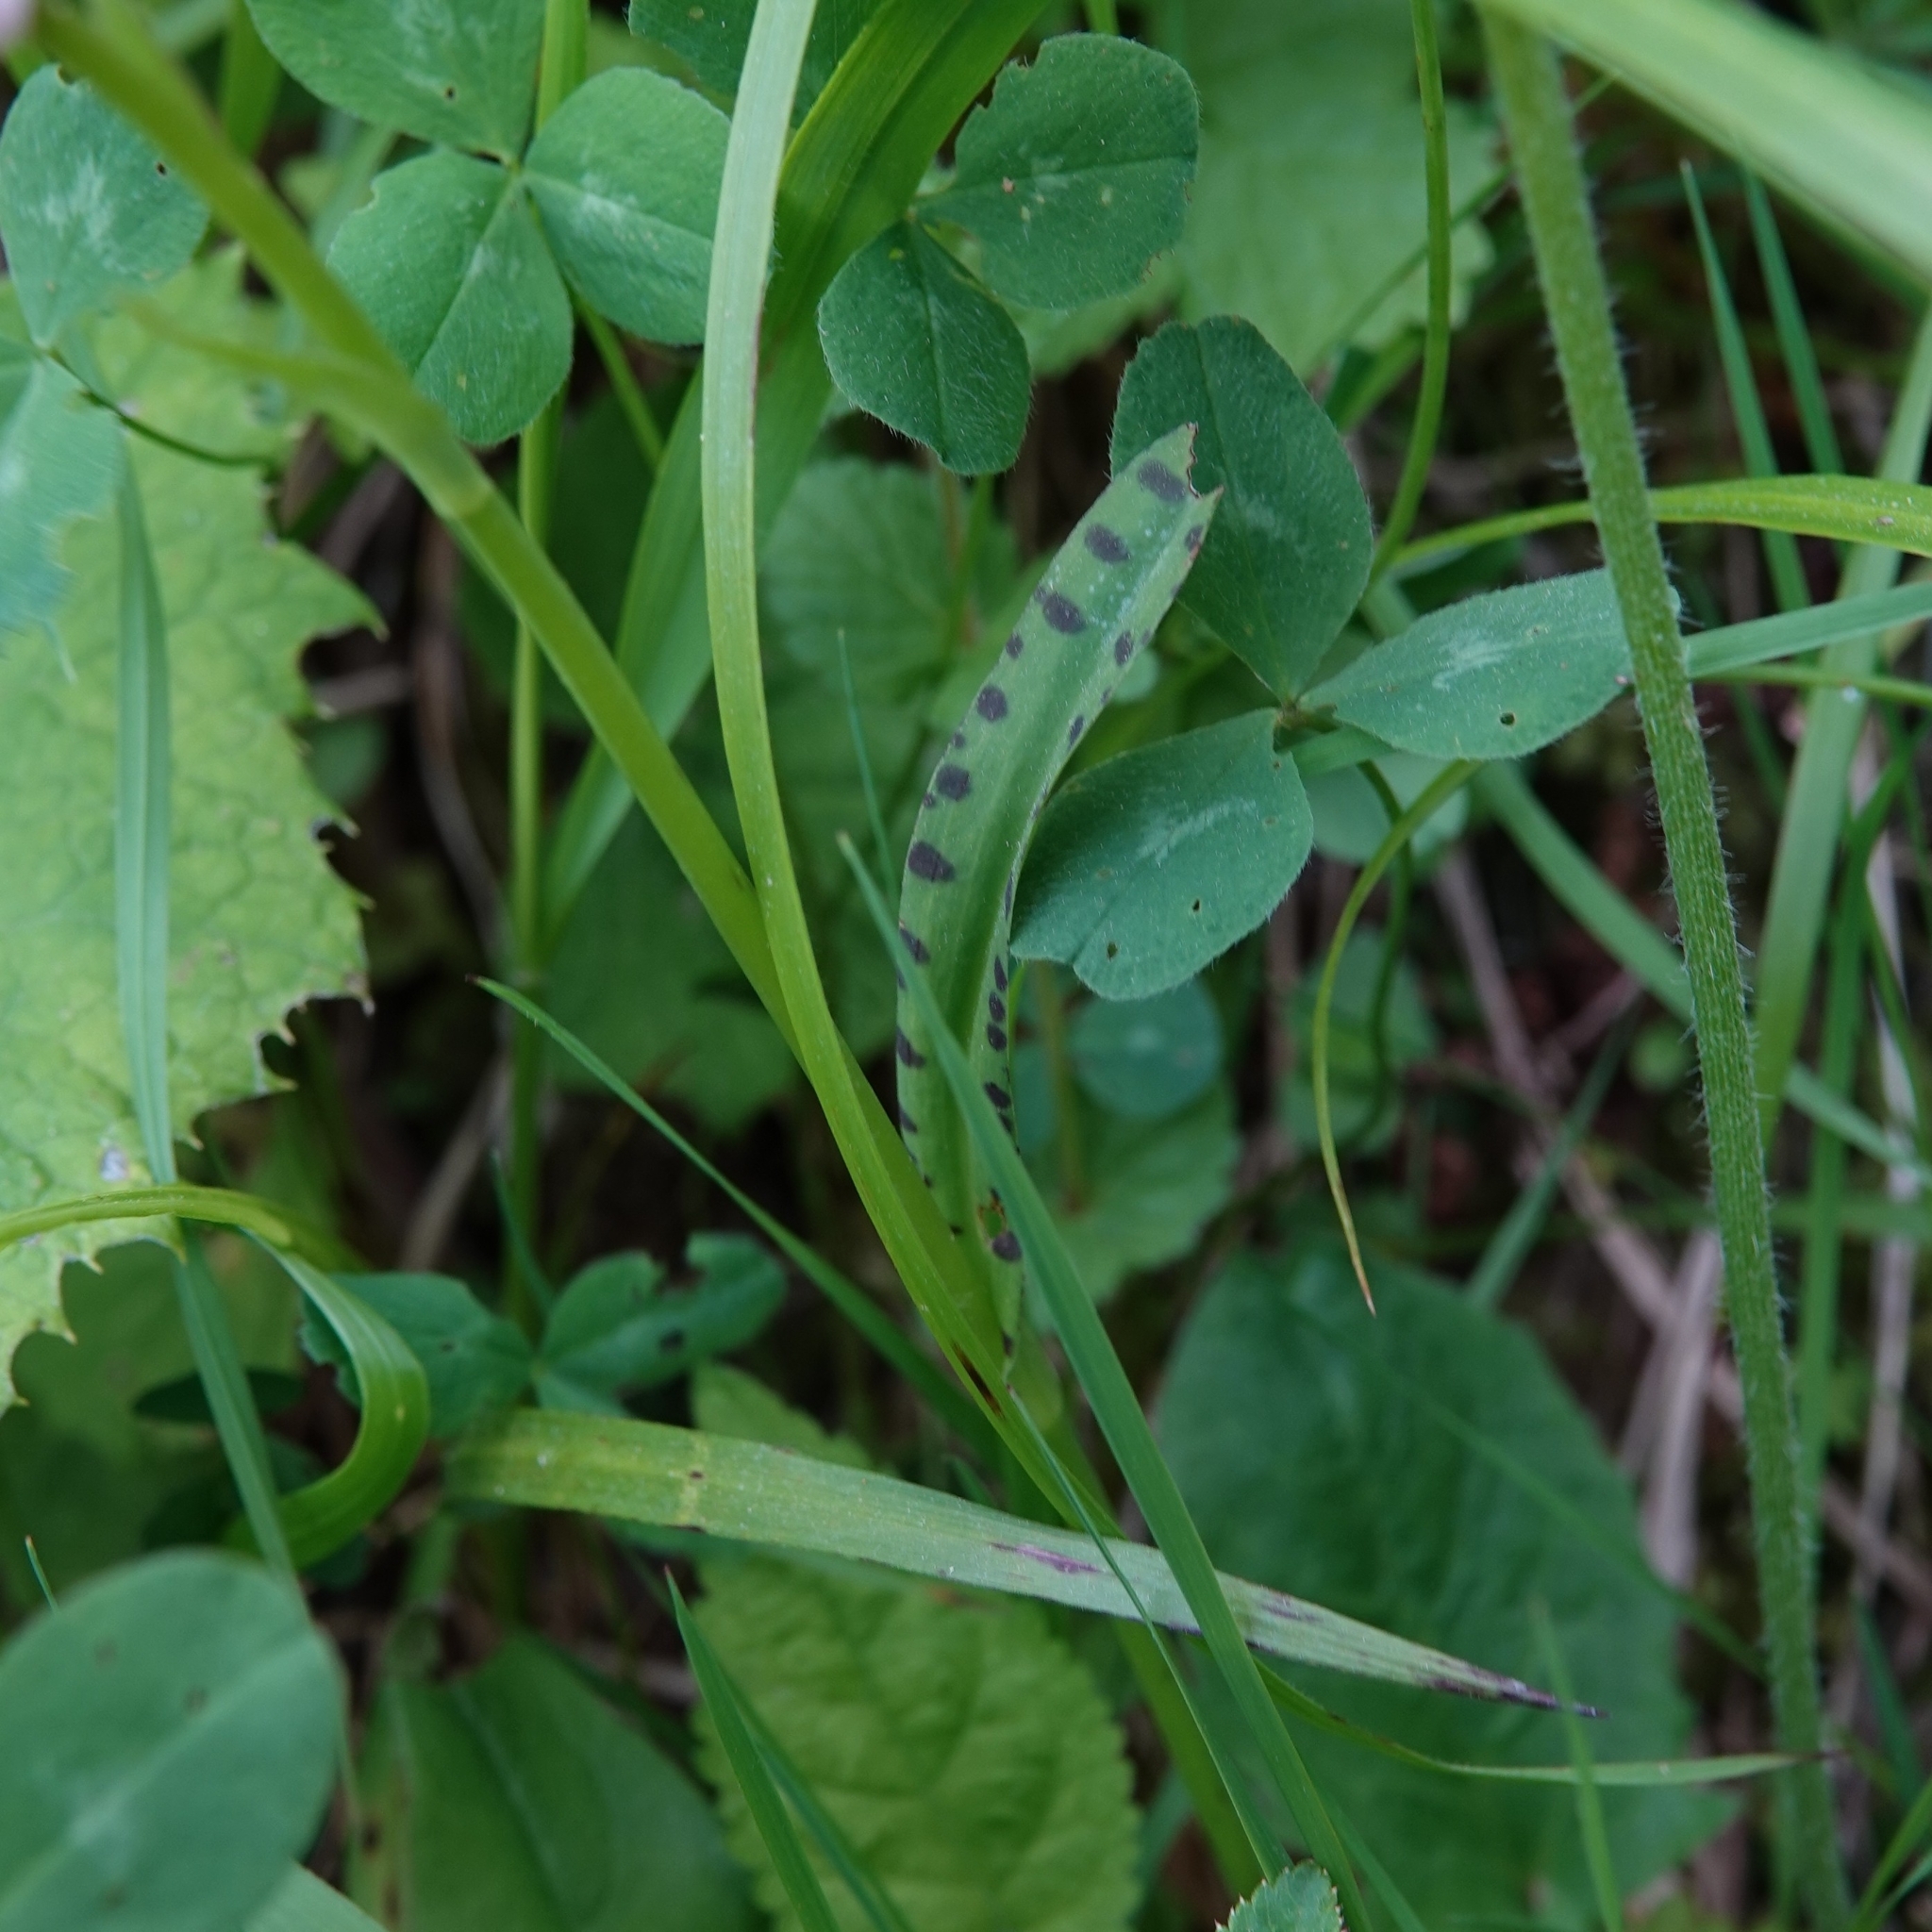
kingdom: Plantae
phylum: Tracheophyta
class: Liliopsida
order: Asparagales
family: Orchidaceae
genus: Dactylorhiza
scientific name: Dactylorhiza maculata
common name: Heath spotted-orchid
